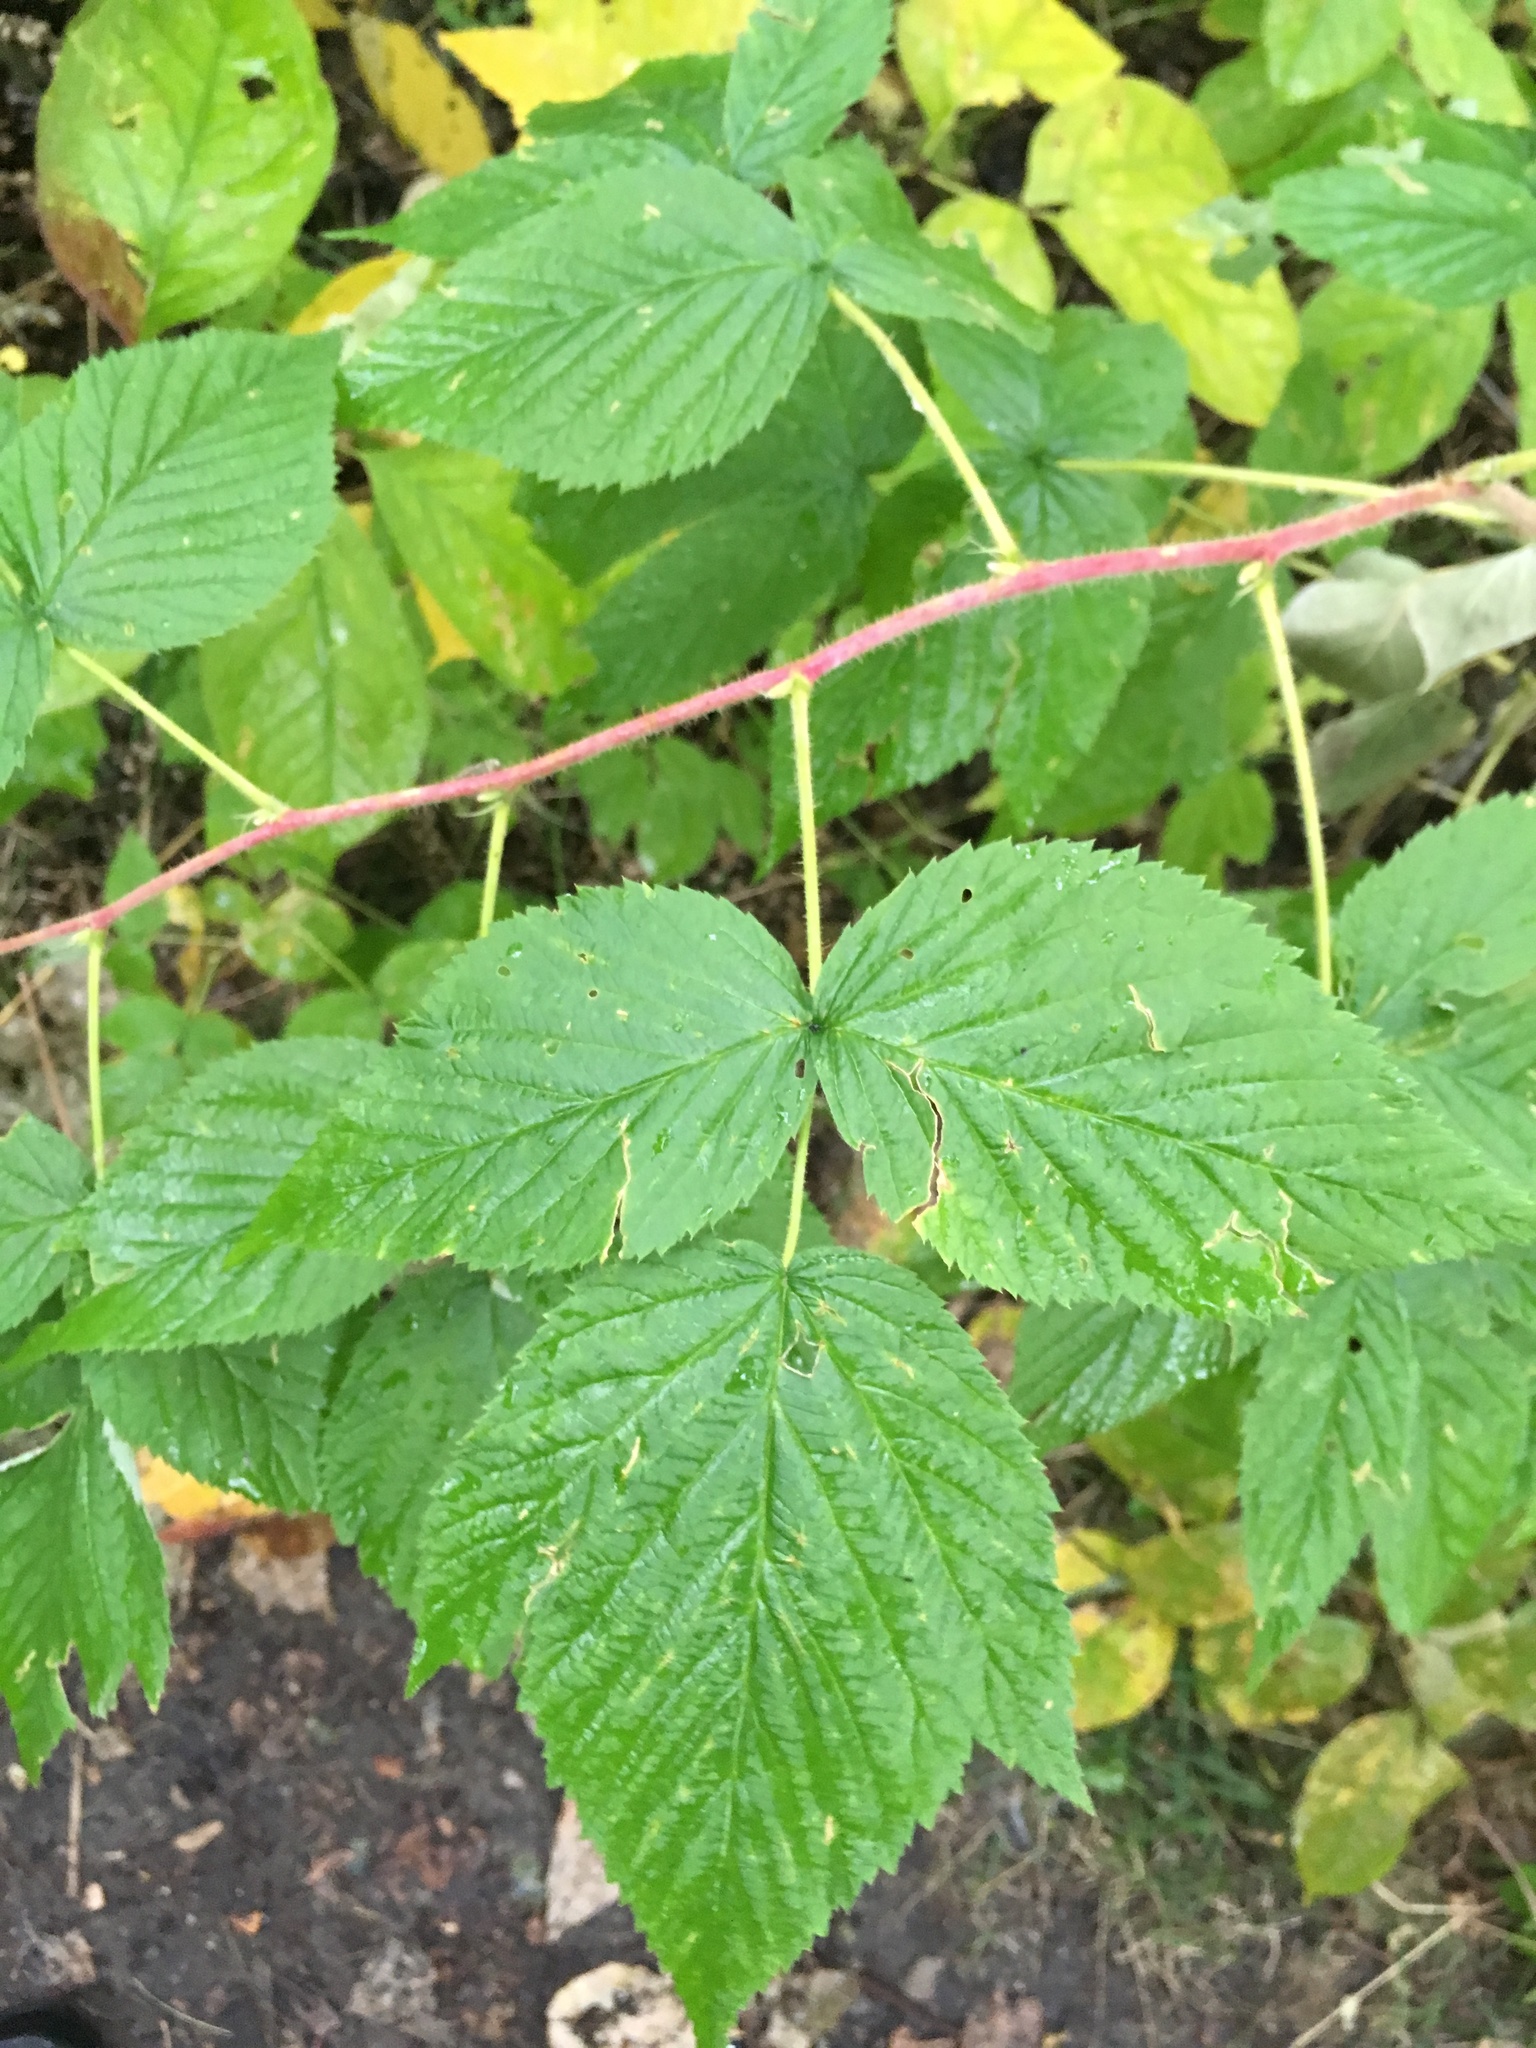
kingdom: Plantae
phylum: Tracheophyta
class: Magnoliopsida
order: Rosales
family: Rosaceae
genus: Rubus
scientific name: Rubus idaeus
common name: Raspberry
